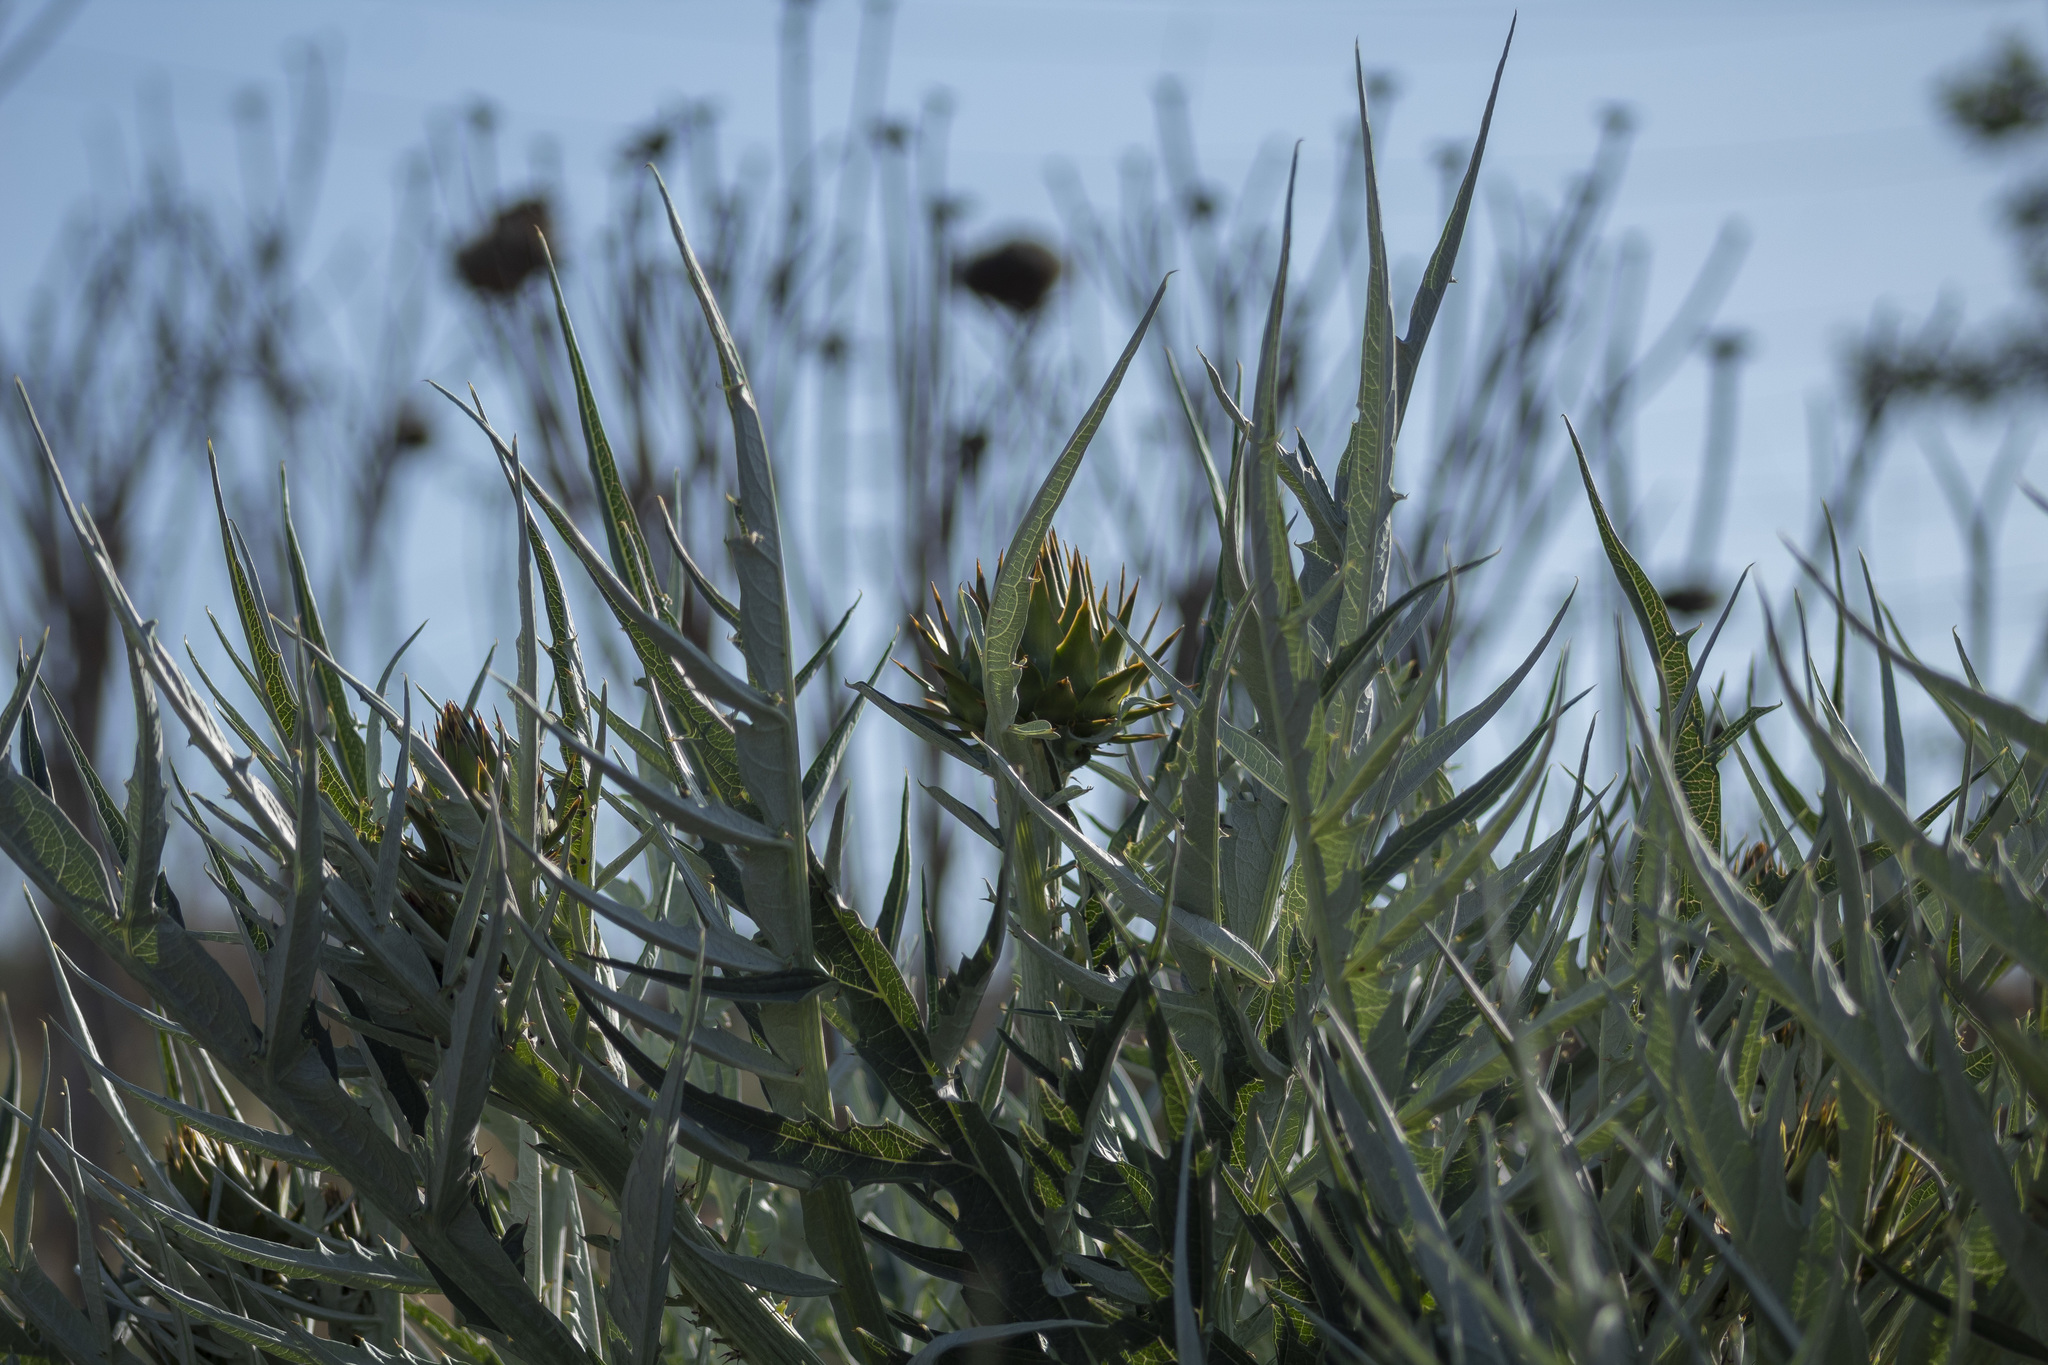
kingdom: Plantae
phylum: Tracheophyta
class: Magnoliopsida
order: Asterales
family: Asteraceae
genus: Cynara
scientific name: Cynara cardunculus
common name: Globe artichoke
